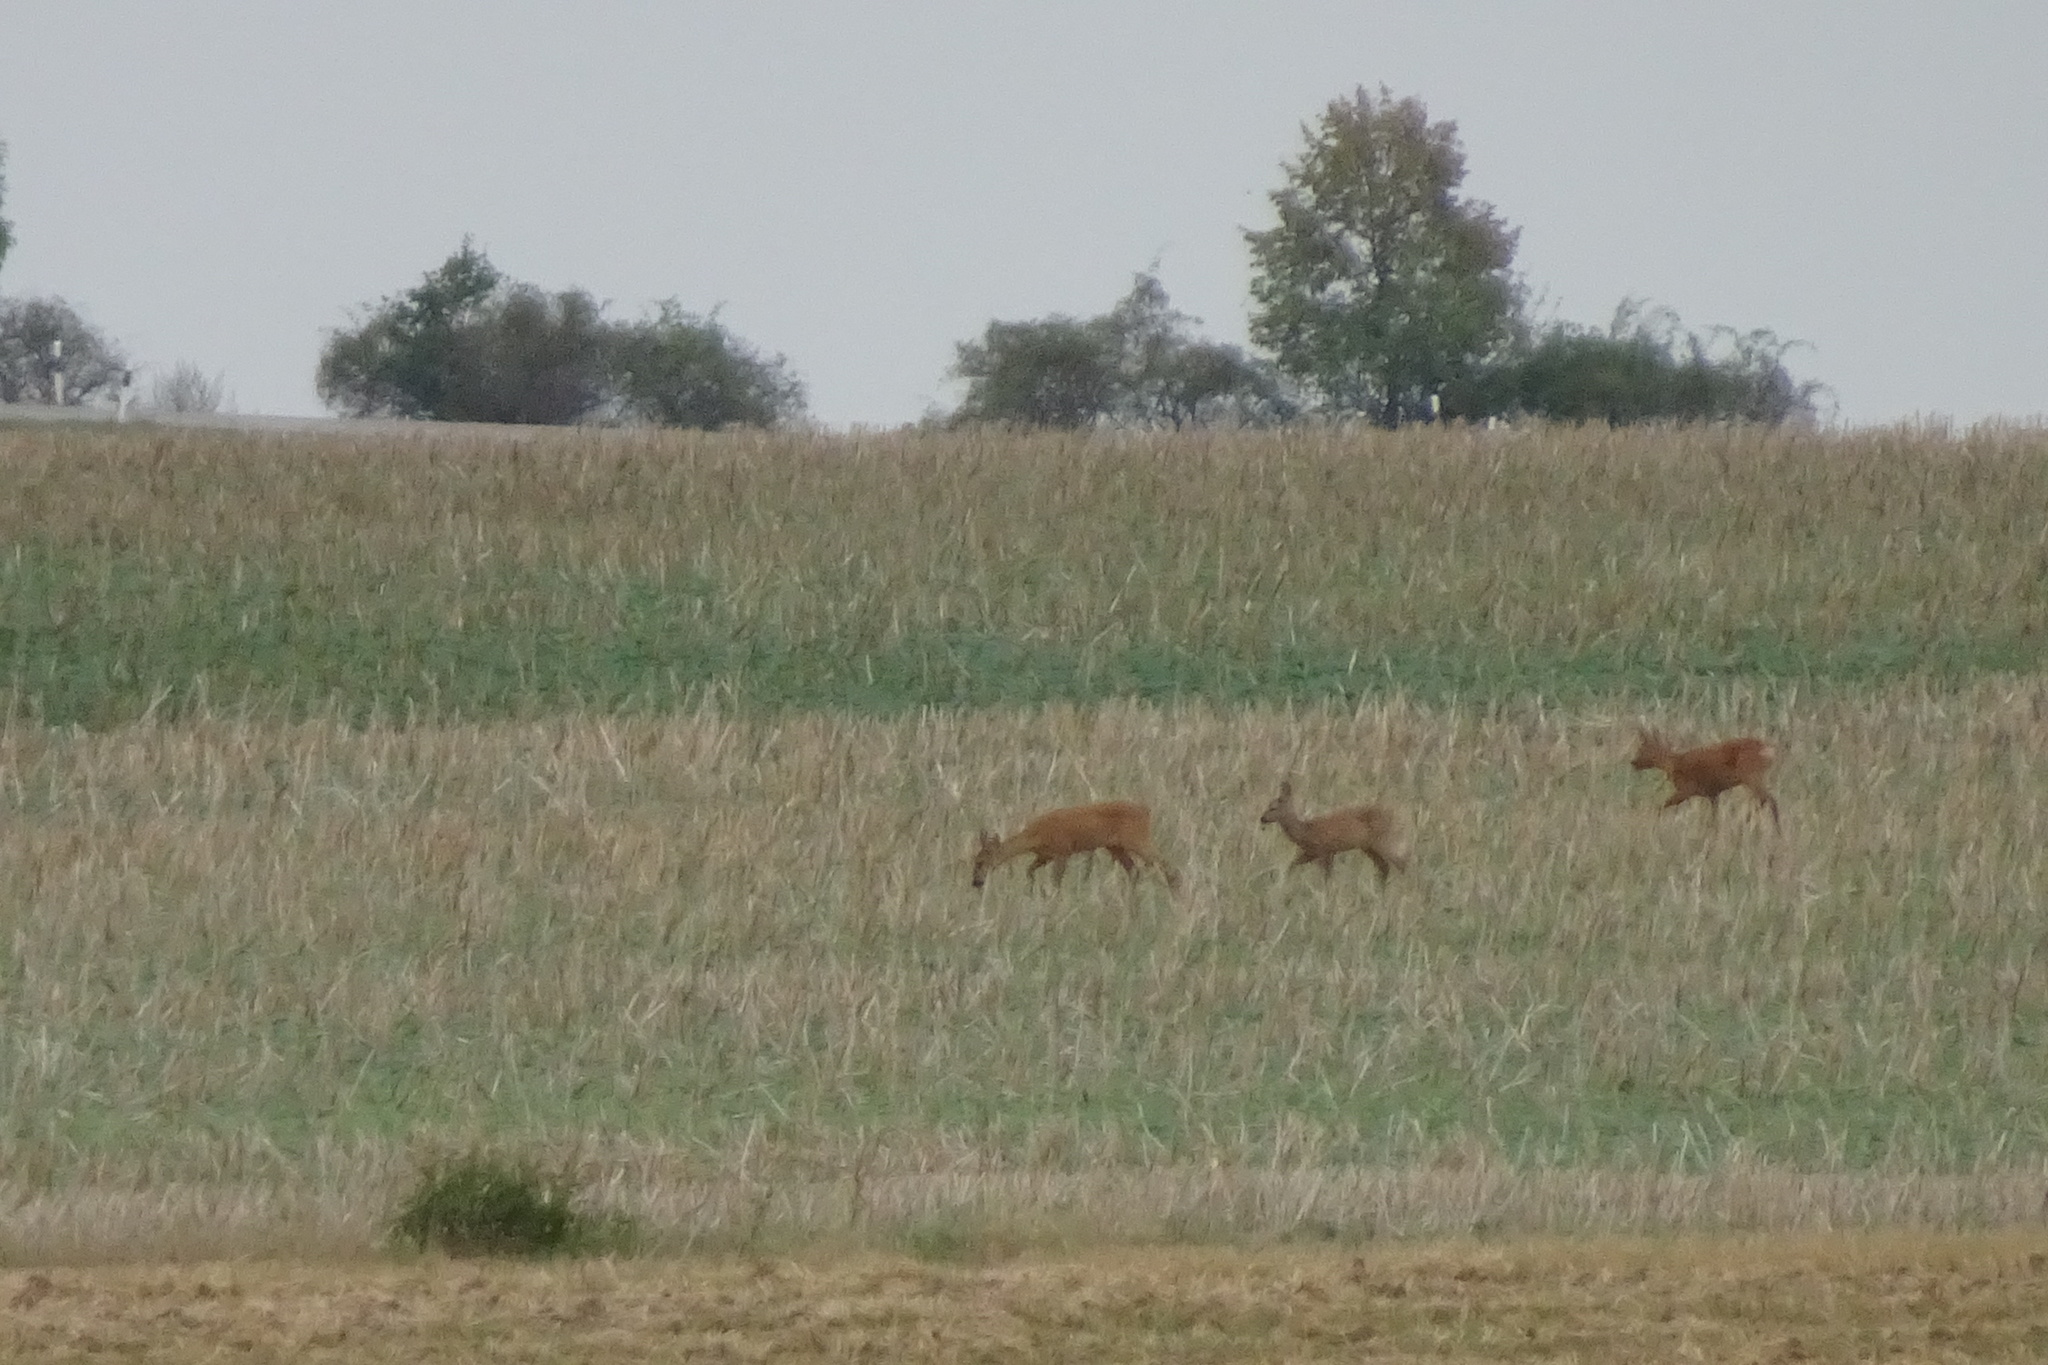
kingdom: Animalia
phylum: Chordata
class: Mammalia
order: Artiodactyla
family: Cervidae
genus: Capreolus
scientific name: Capreolus capreolus
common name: Western roe deer
